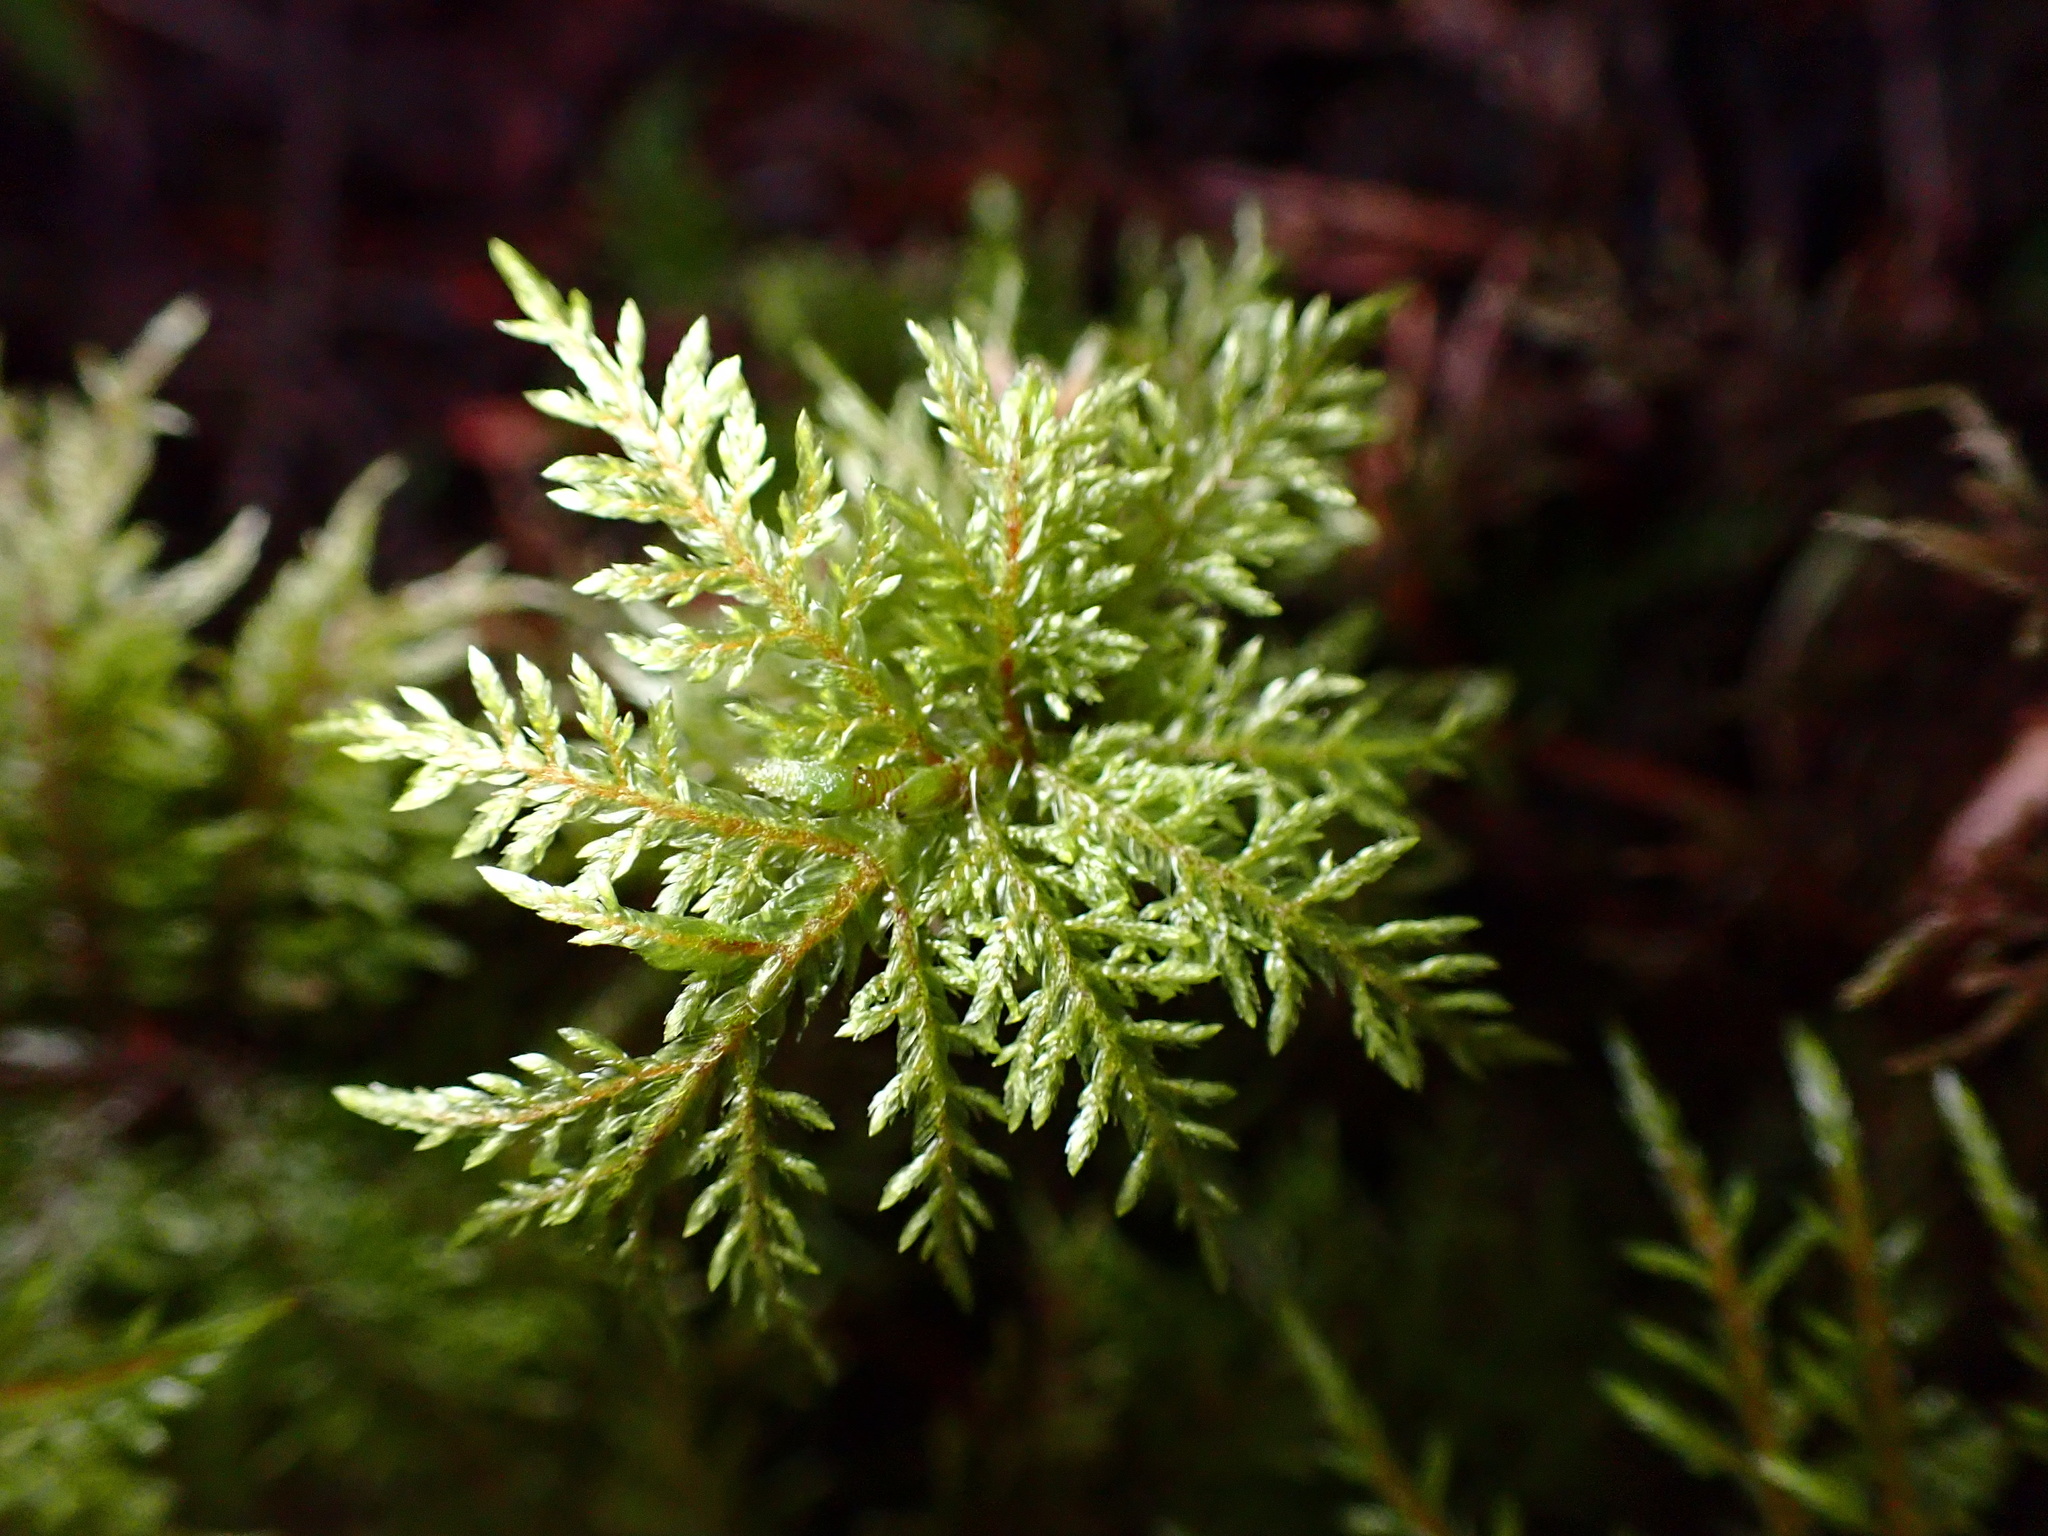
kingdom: Plantae
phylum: Bryophyta
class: Bryopsida
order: Hypnales
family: Hylocomiaceae
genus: Hylocomium
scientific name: Hylocomium splendens
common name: Stairstep moss
